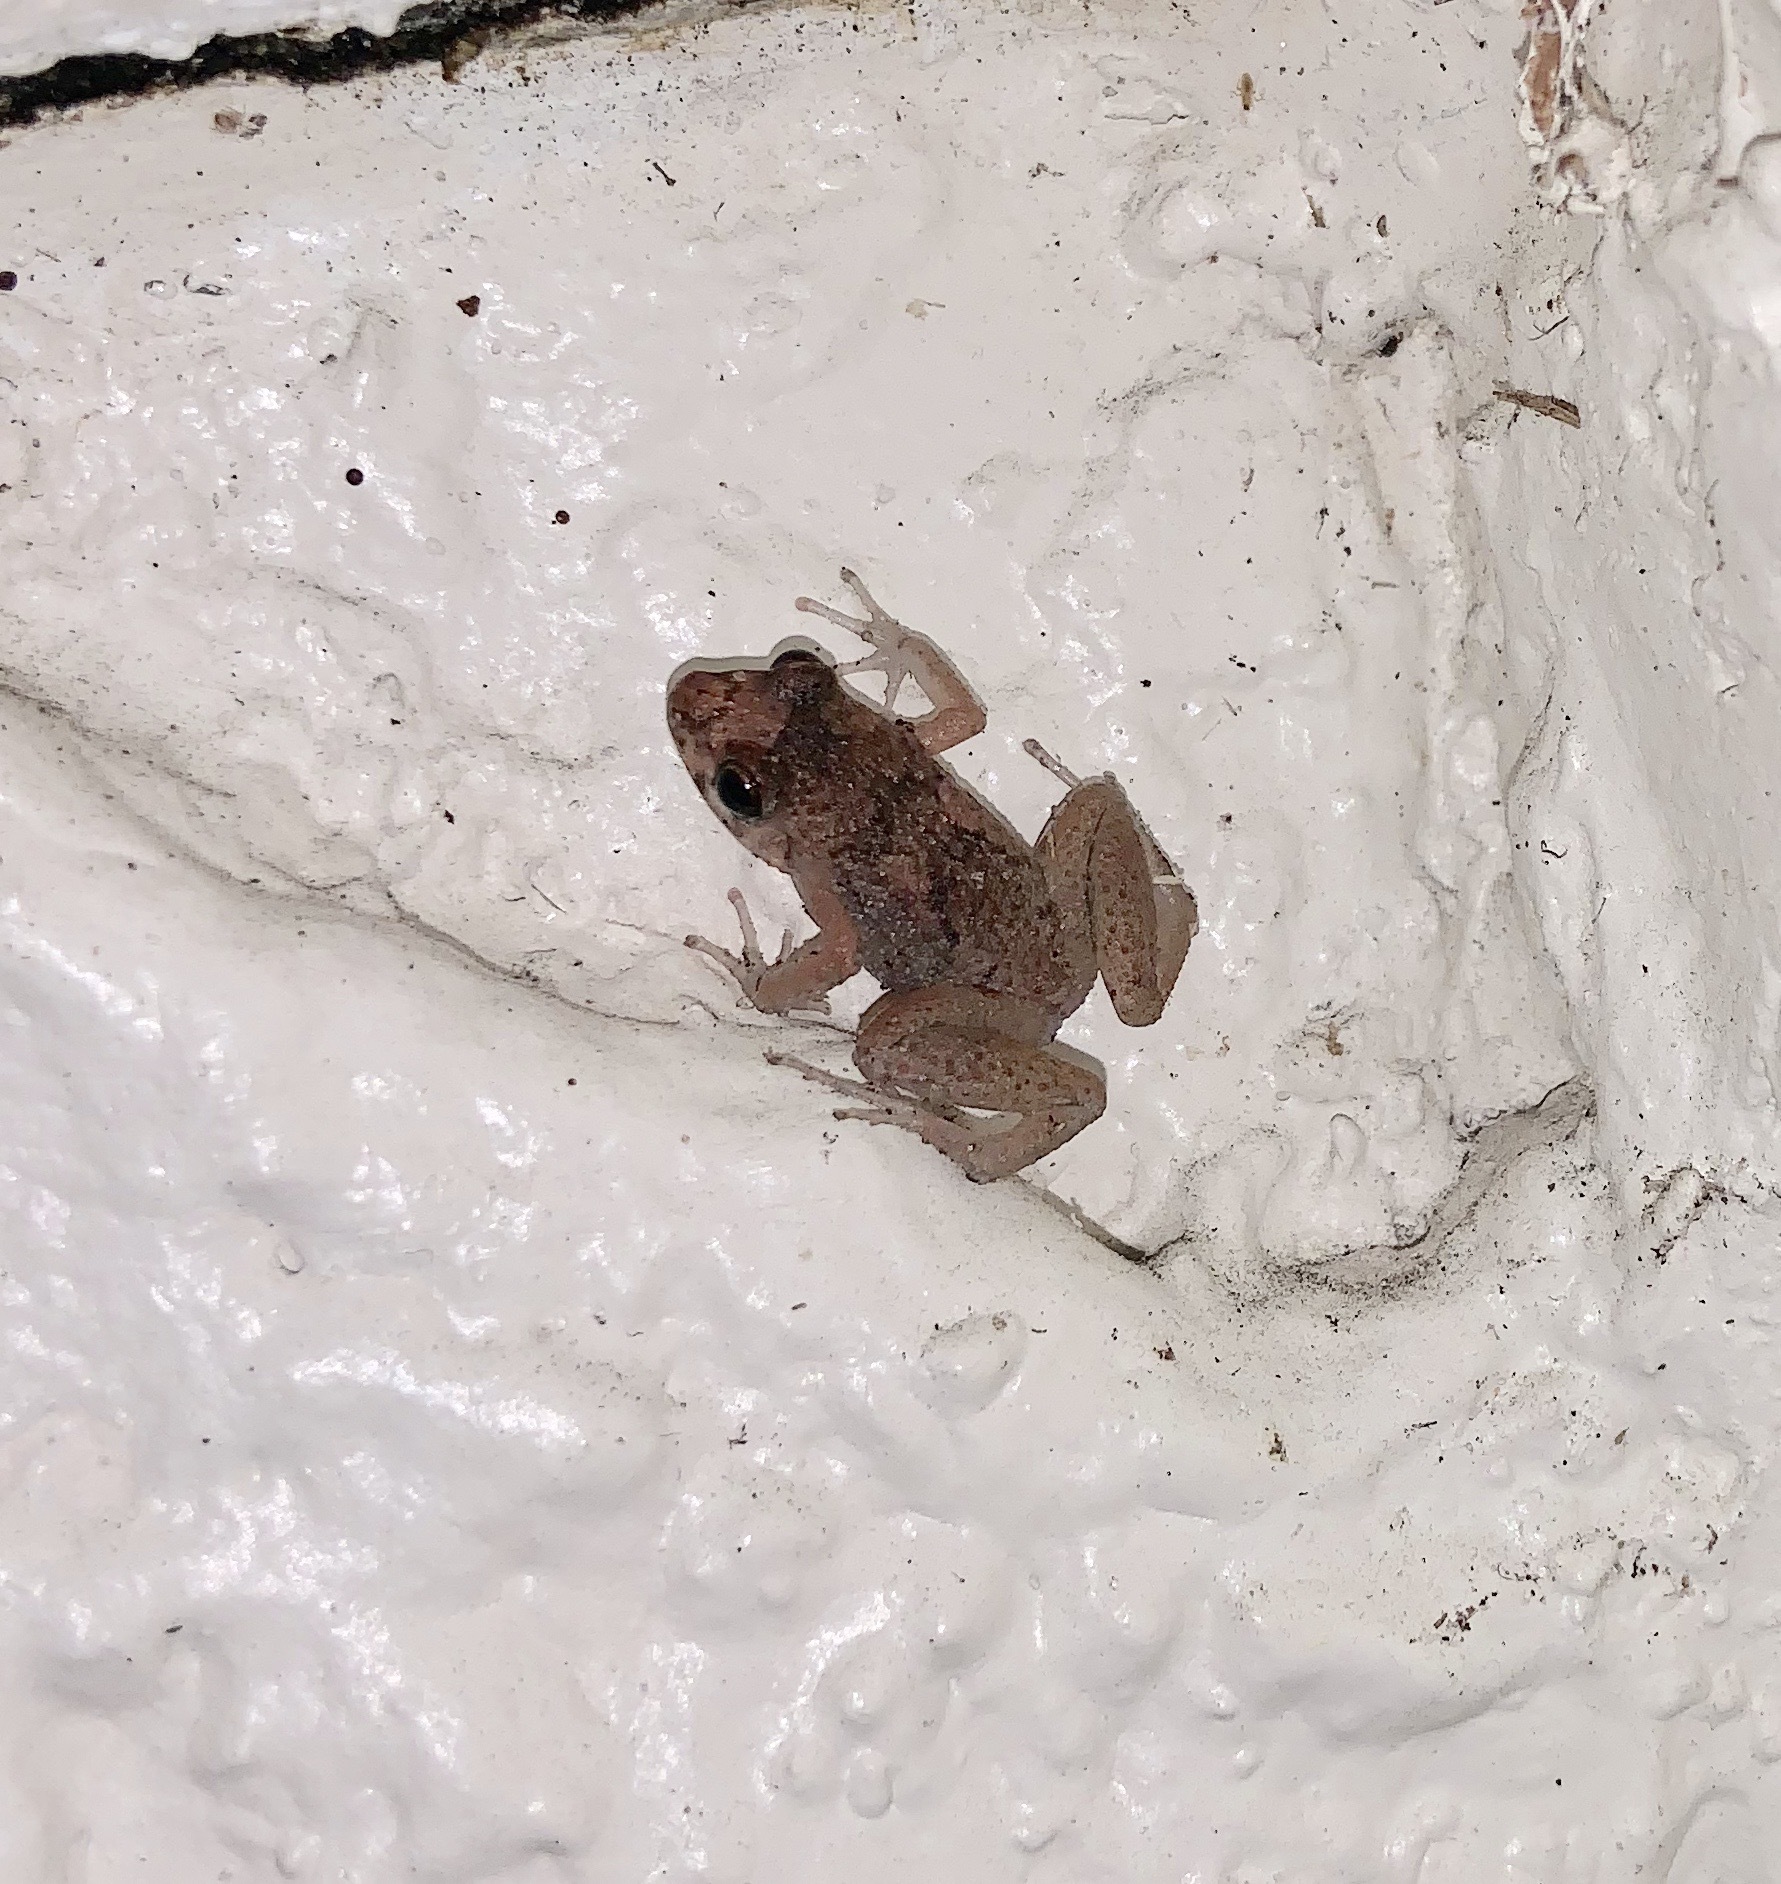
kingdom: Animalia
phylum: Chordata
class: Amphibia
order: Anura
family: Eleutherodactylidae
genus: Eleutherodactylus
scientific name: Eleutherodactylus planirostris
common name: Greenhouse frog
